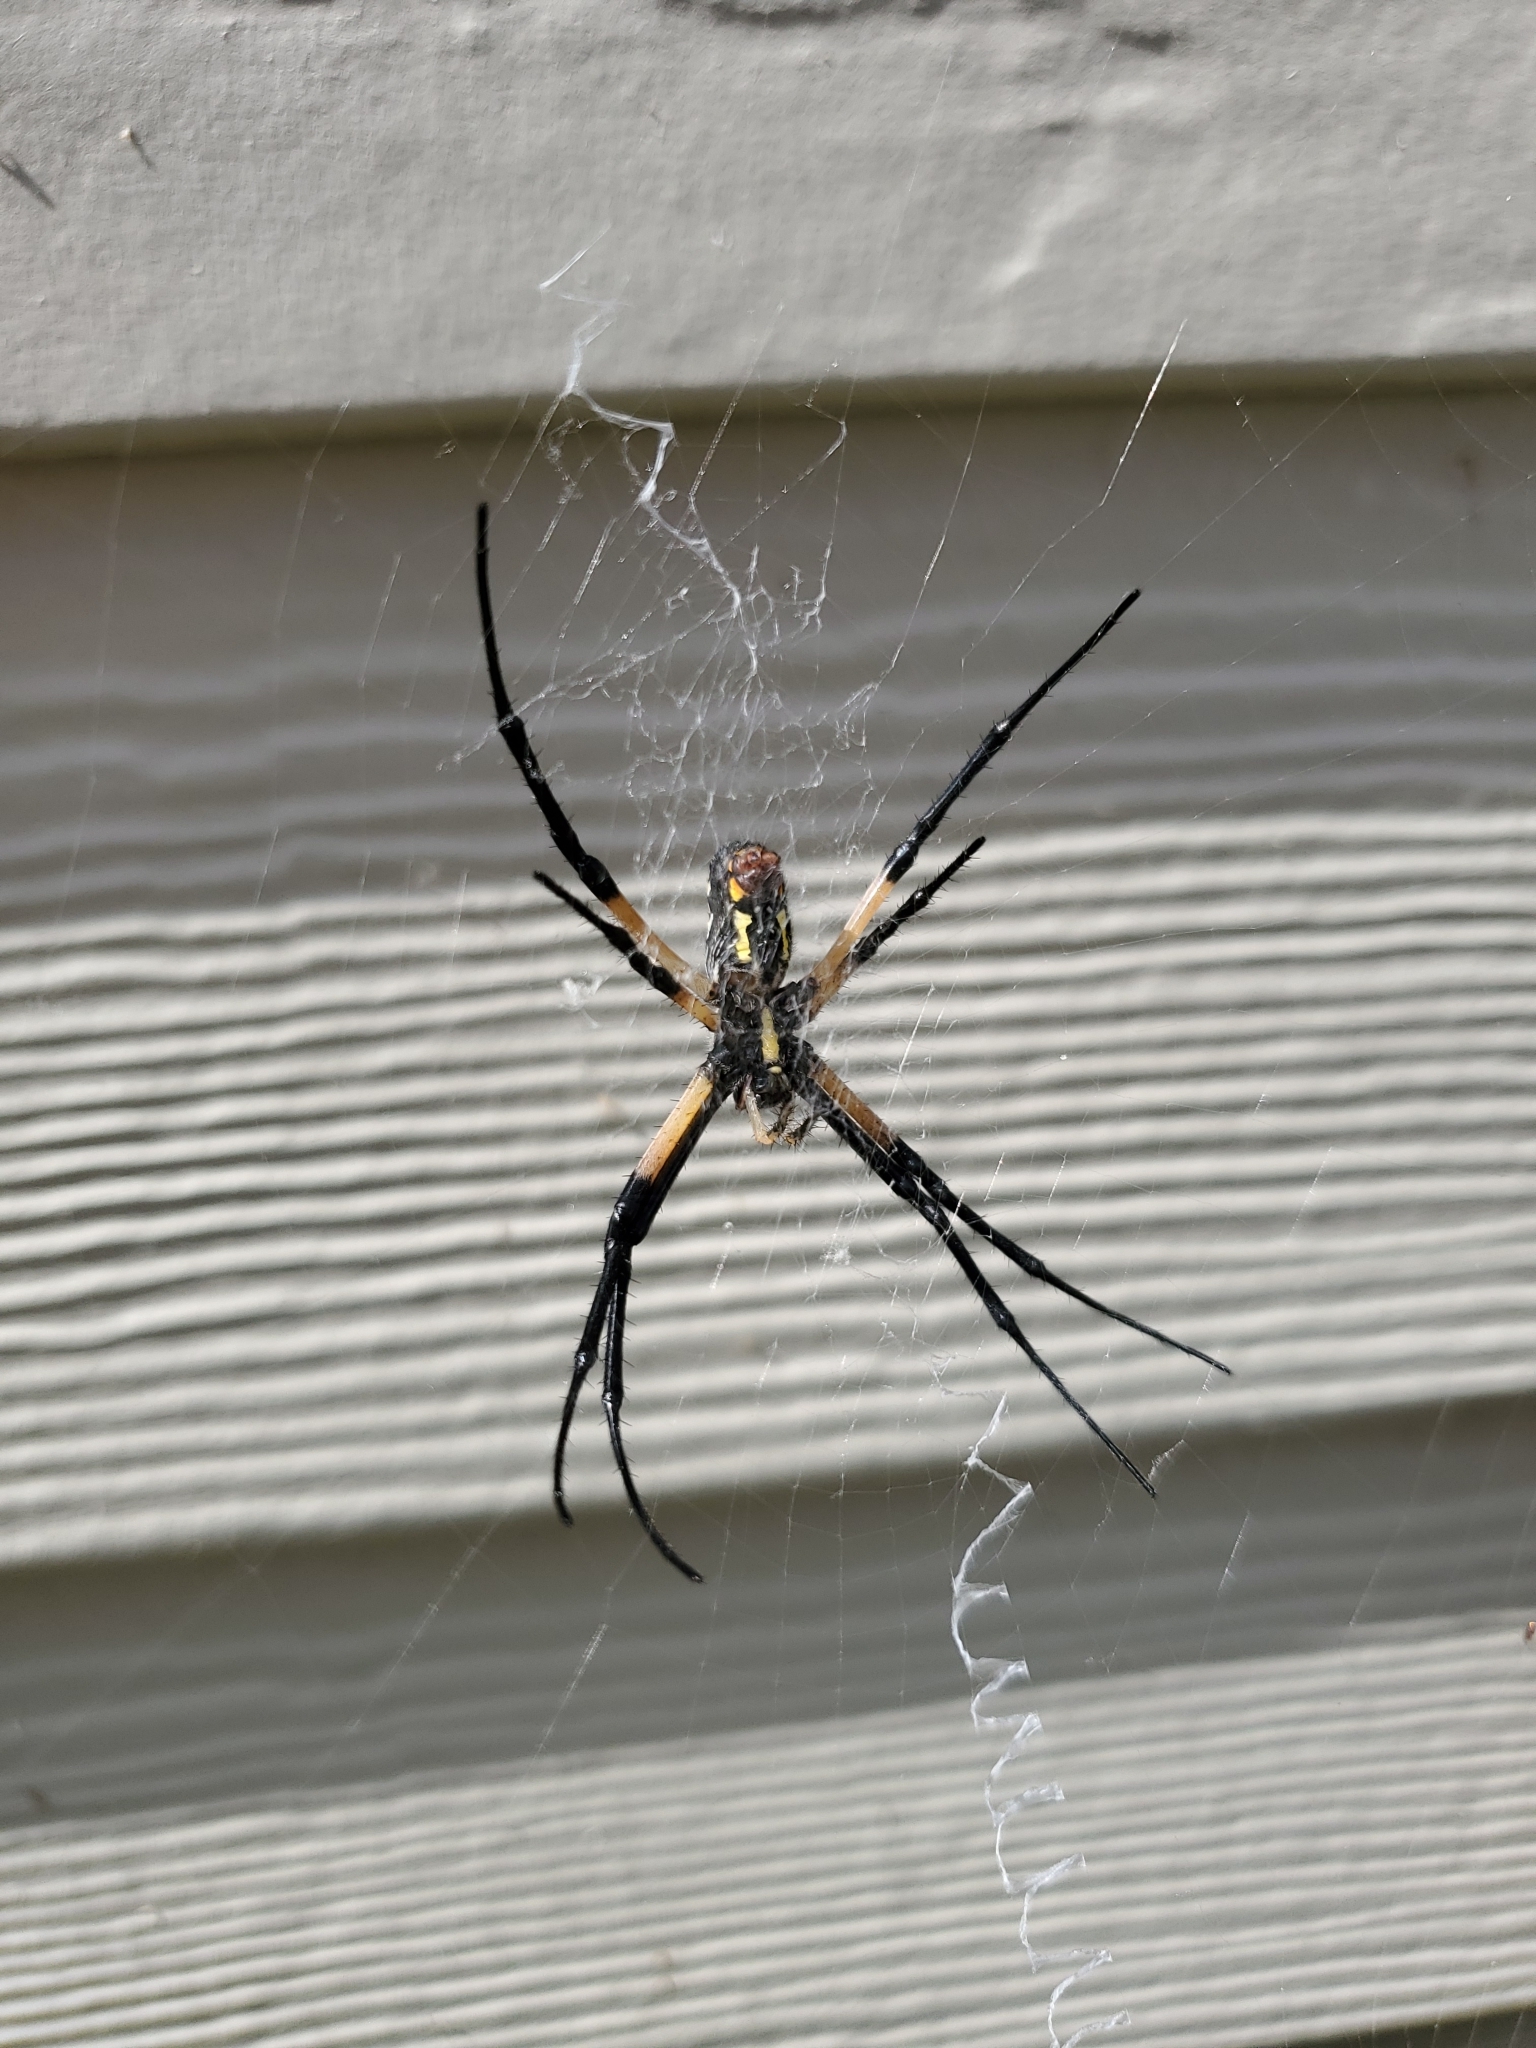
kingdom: Animalia
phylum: Arthropoda
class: Arachnida
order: Araneae
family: Araneidae
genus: Argiope
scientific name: Argiope aurantia
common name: Orb weavers
